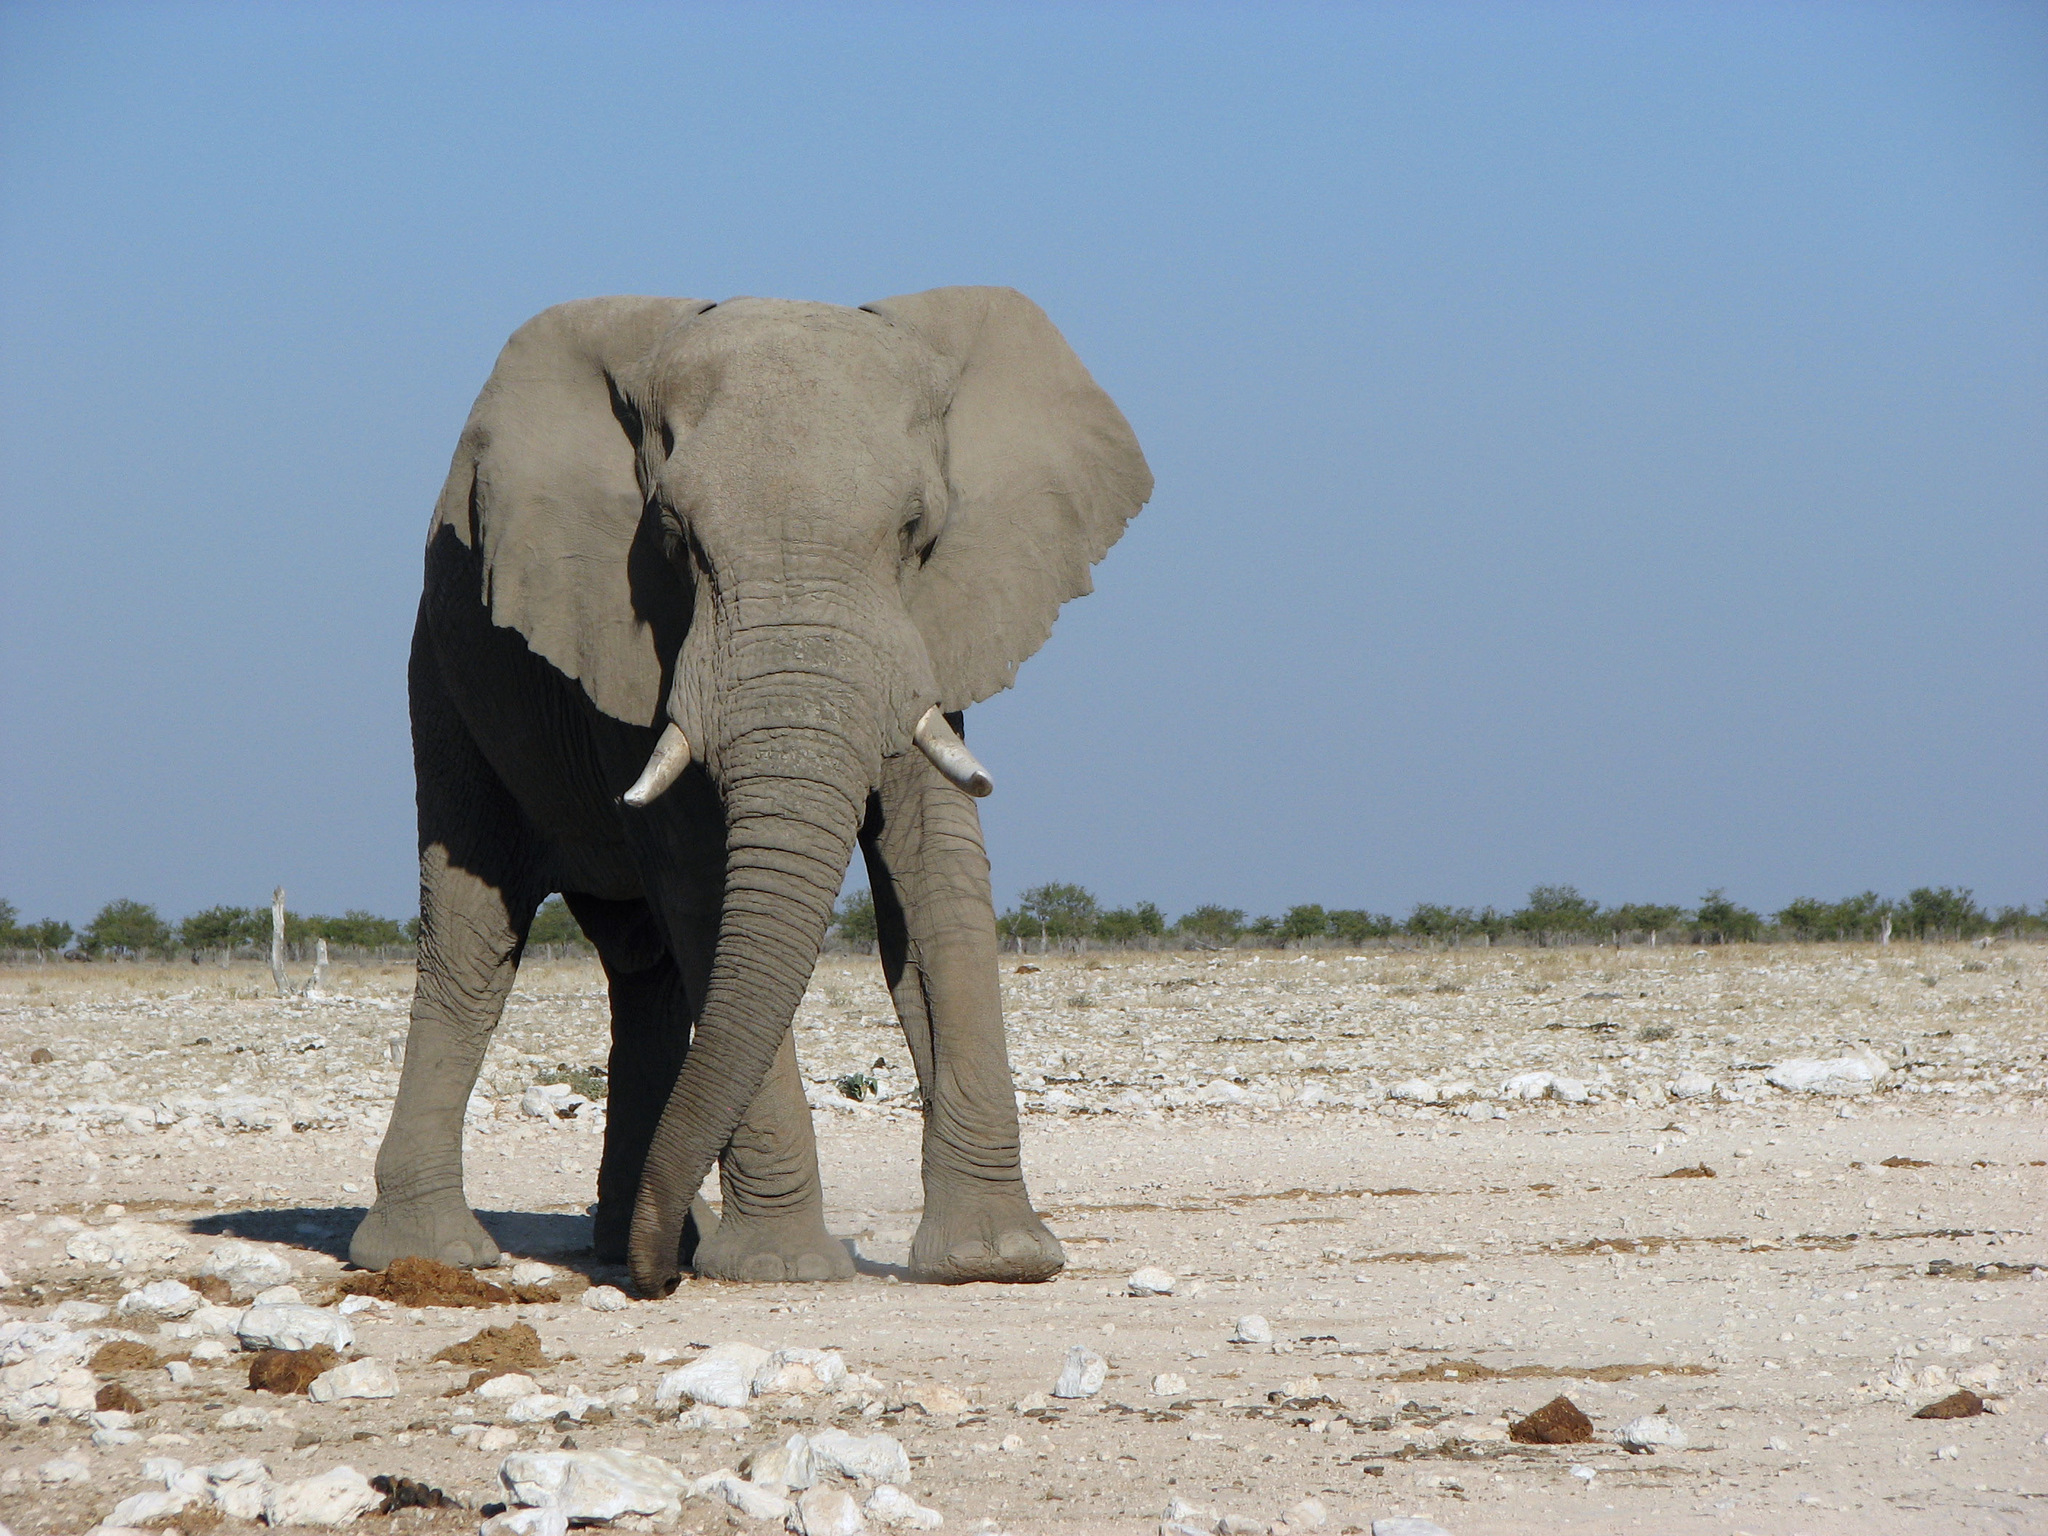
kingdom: Animalia
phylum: Chordata
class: Mammalia
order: Proboscidea
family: Elephantidae
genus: Loxodonta
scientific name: Loxodonta africana
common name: African elephant
